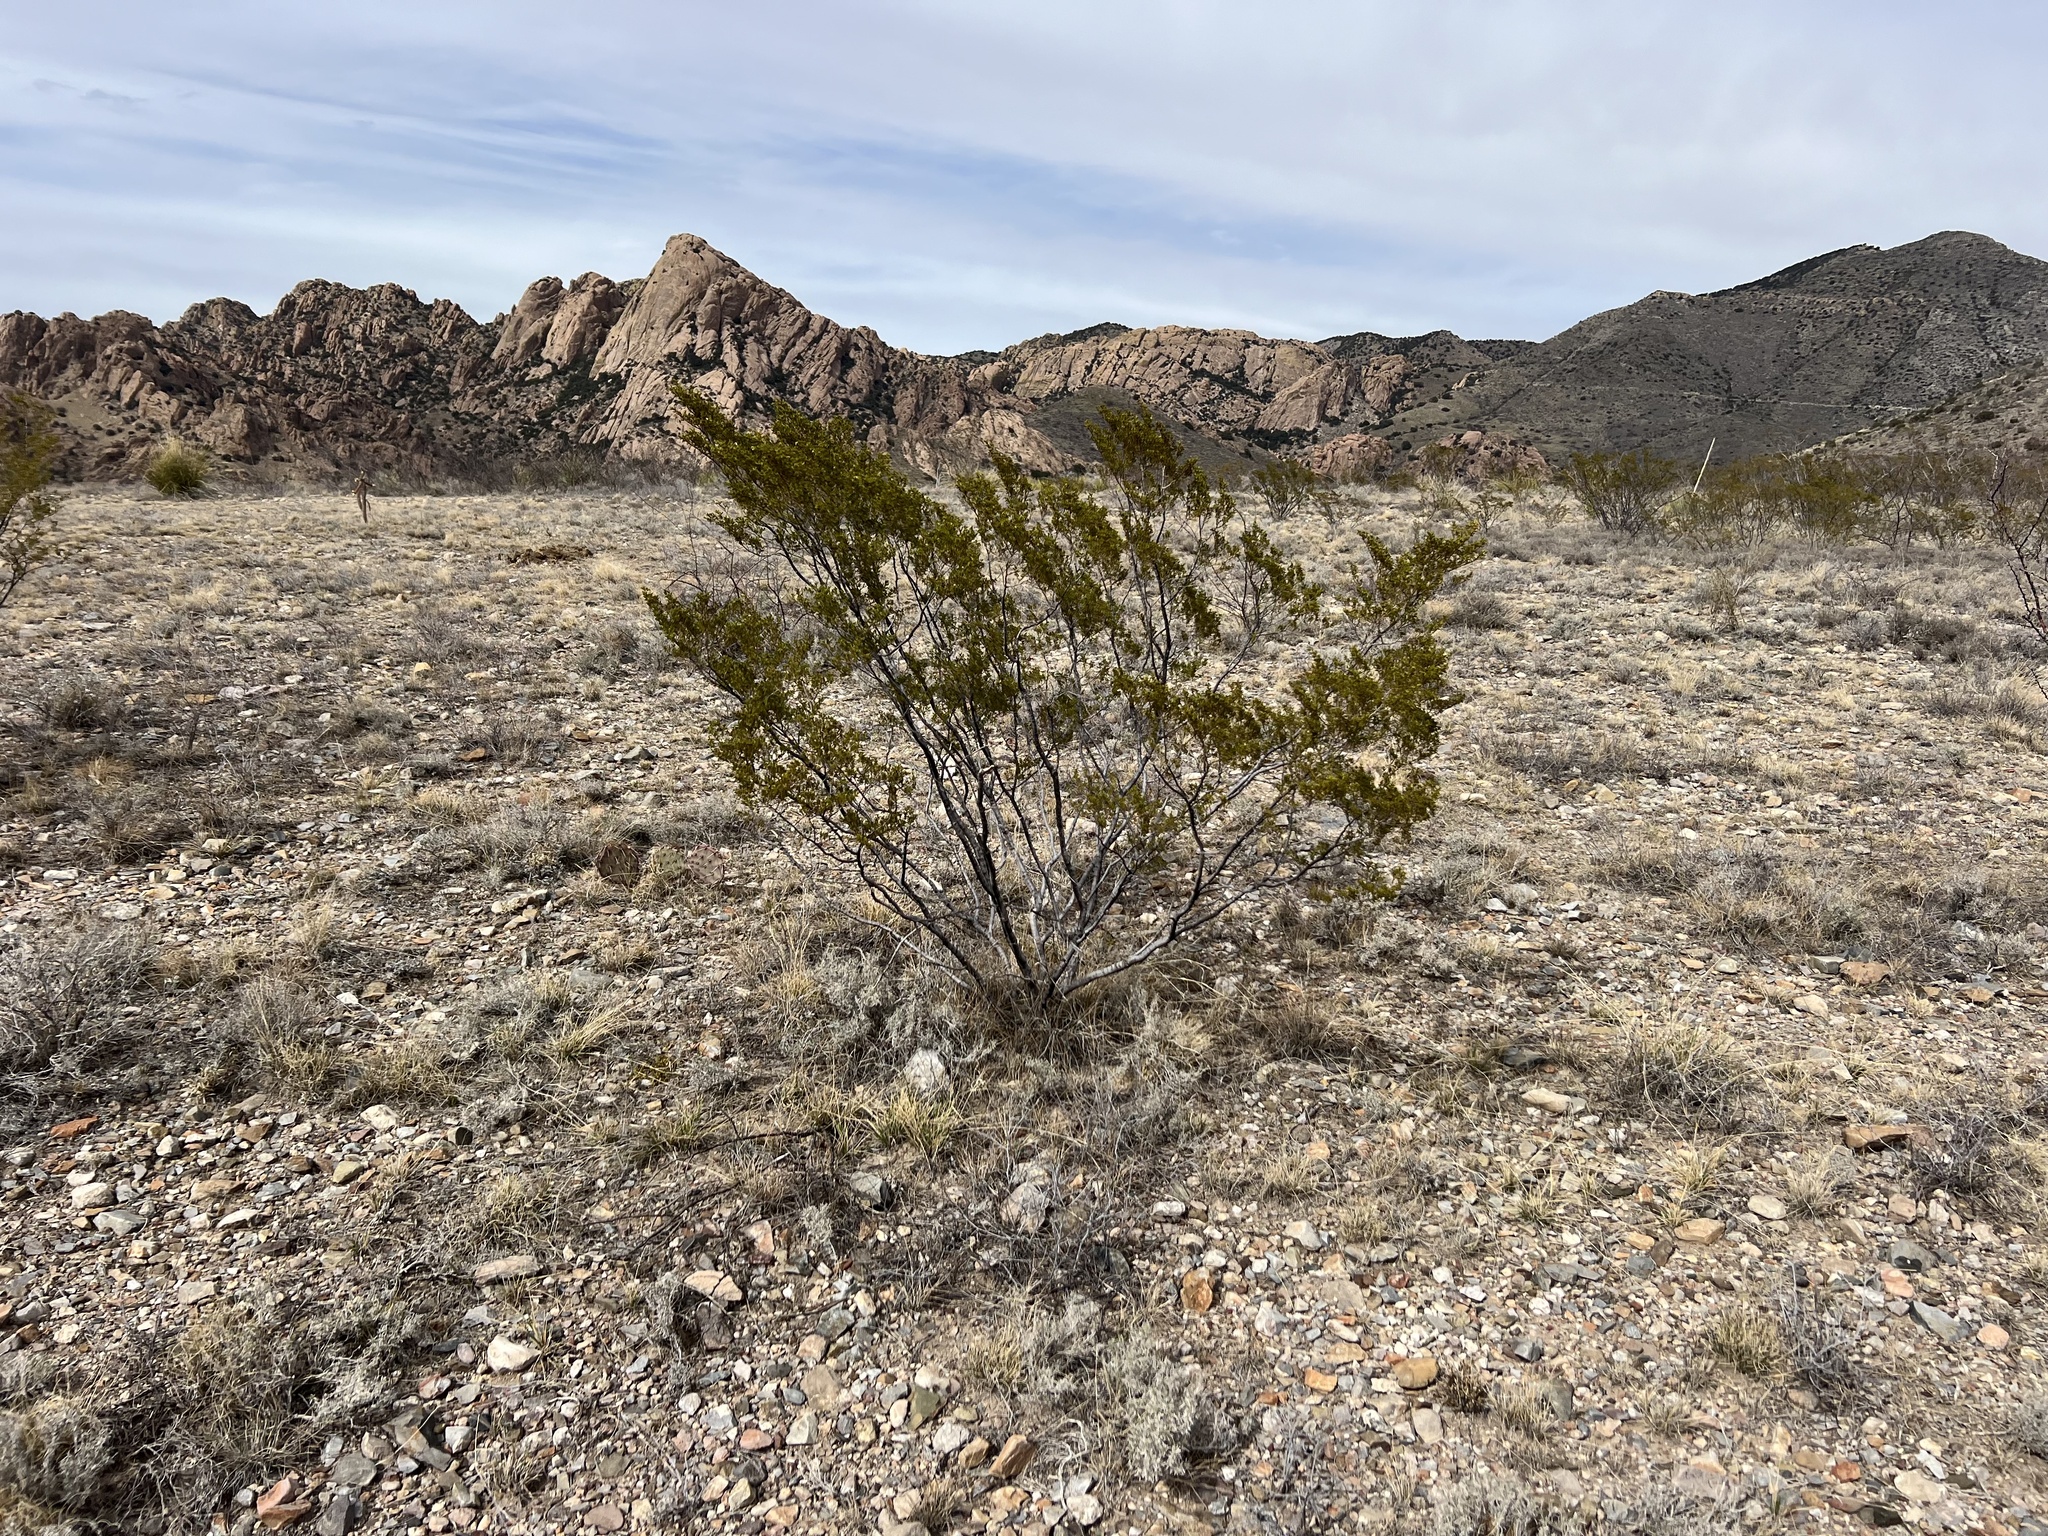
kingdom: Plantae
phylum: Tracheophyta
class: Magnoliopsida
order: Zygophyllales
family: Zygophyllaceae
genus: Larrea
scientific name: Larrea tridentata
